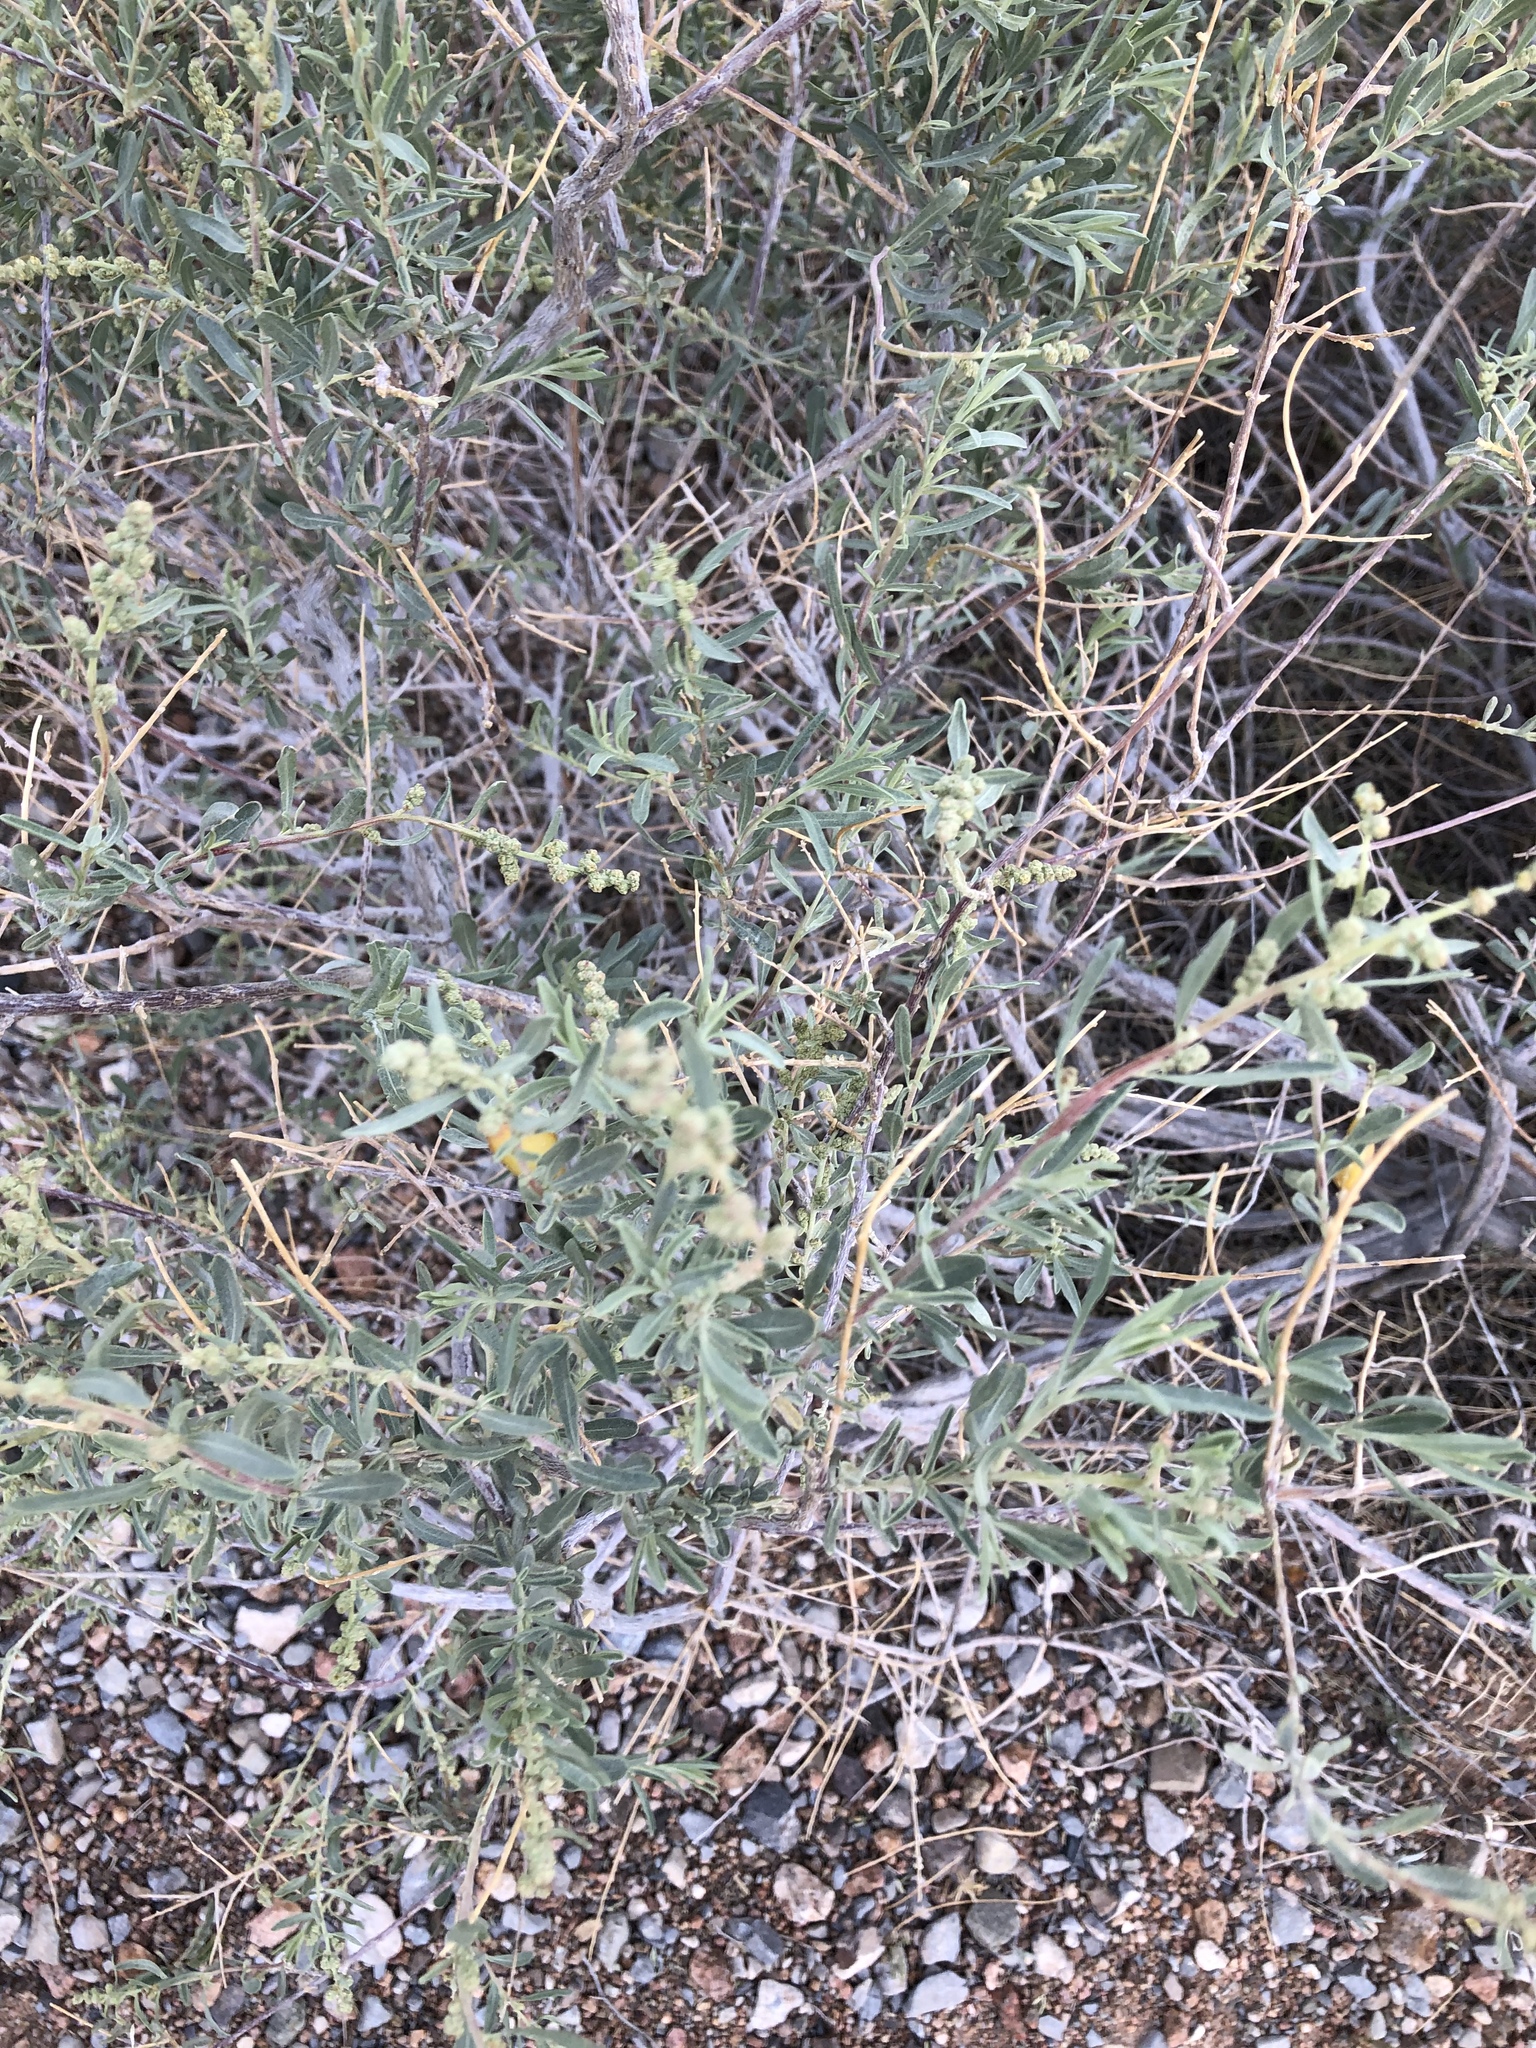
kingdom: Plantae
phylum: Tracheophyta
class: Magnoliopsida
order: Caryophyllales
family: Amaranthaceae
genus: Atriplex
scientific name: Atriplex canescens
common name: Four-wing saltbush
